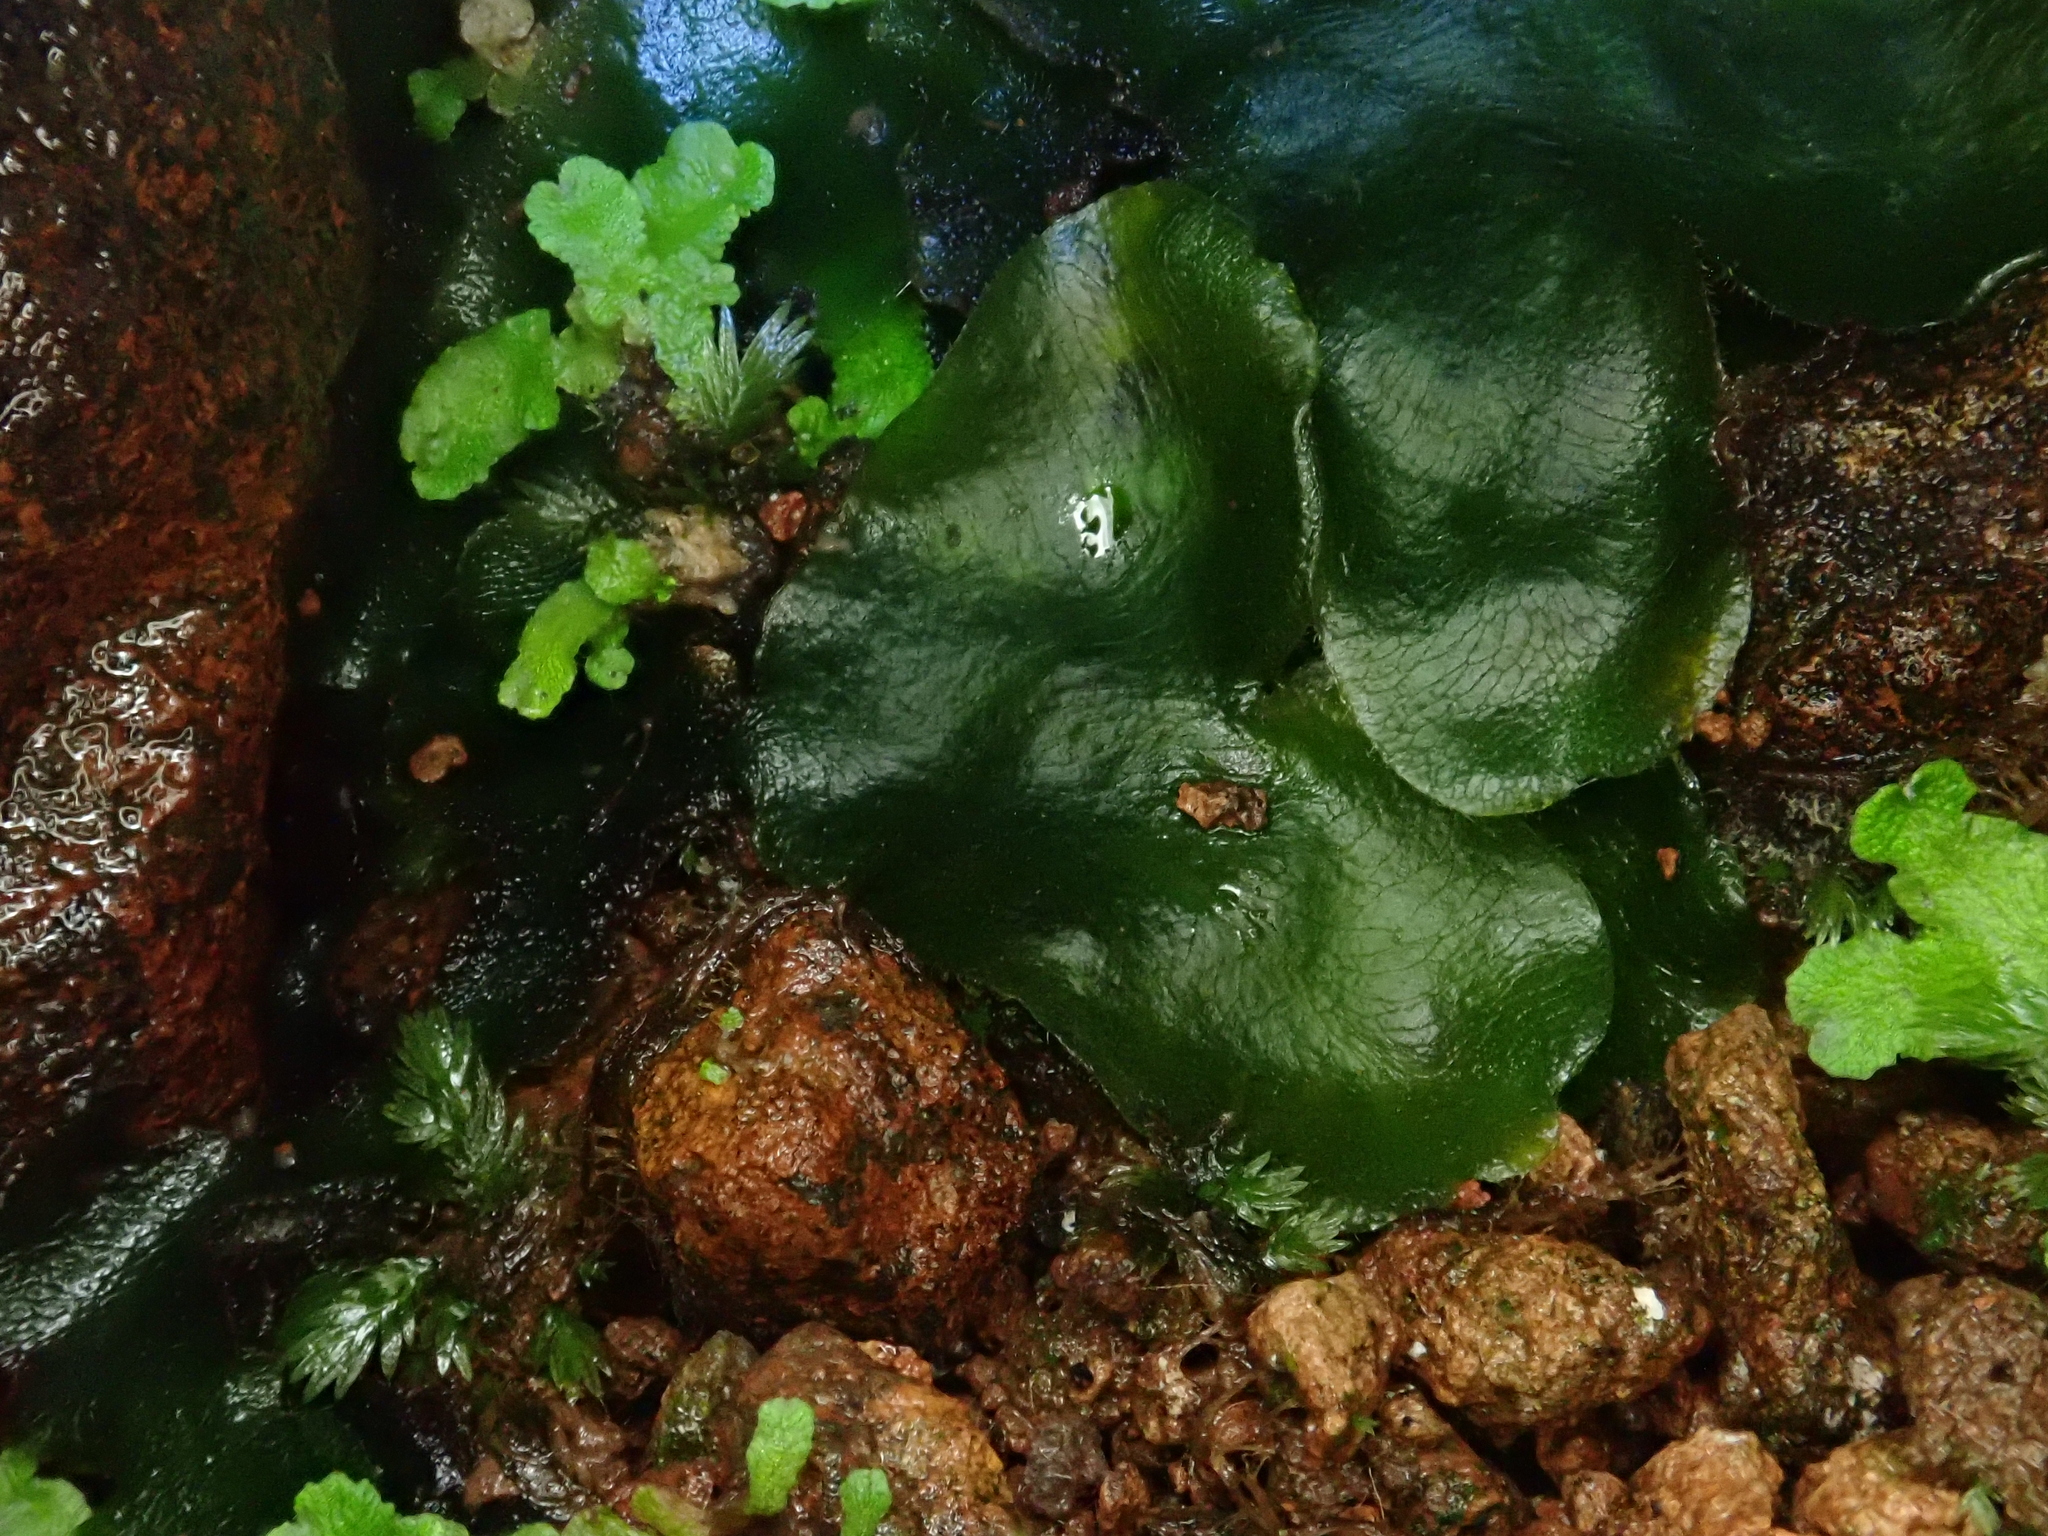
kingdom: Plantae
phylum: Marchantiophyta
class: Marchantiopsida
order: Marchantiales
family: Dumortieraceae
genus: Dumortiera
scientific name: Dumortiera hirsuta
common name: Dumortier's liverwort
